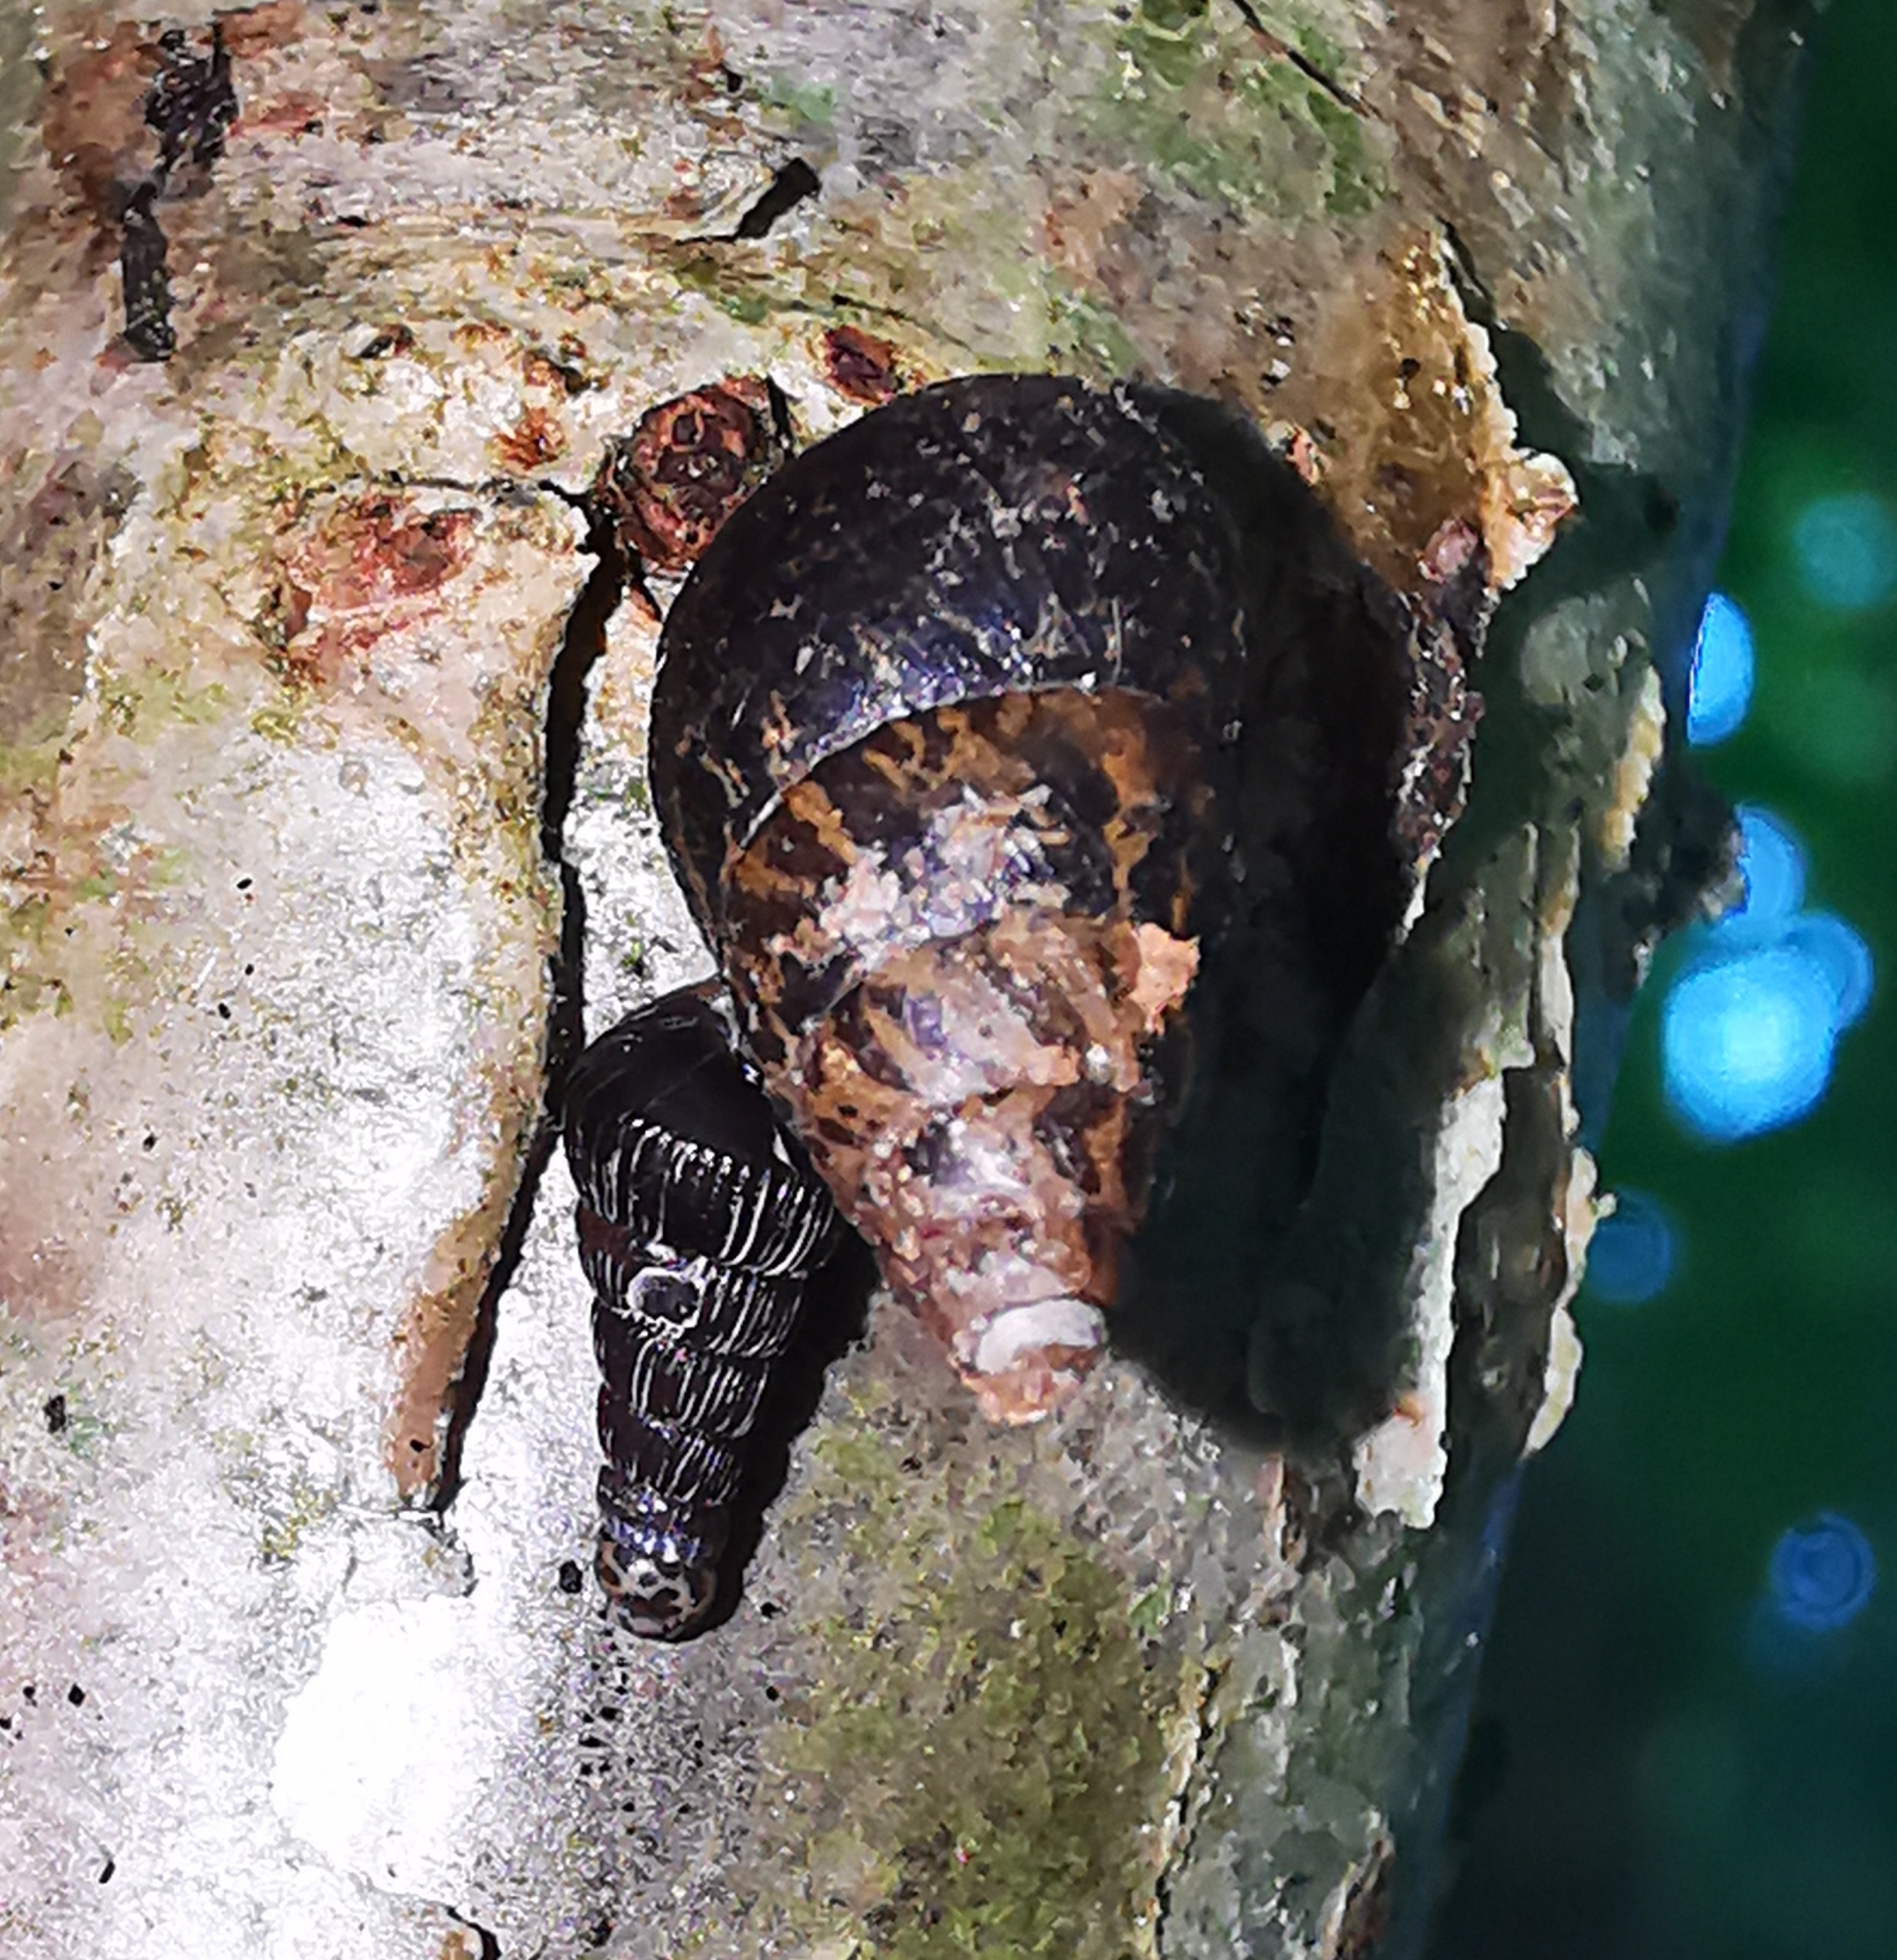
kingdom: Animalia
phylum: Mollusca
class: Gastropoda
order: Stylommatophora
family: Enidae
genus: Ena
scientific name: Ena montana
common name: Mountain bulin
